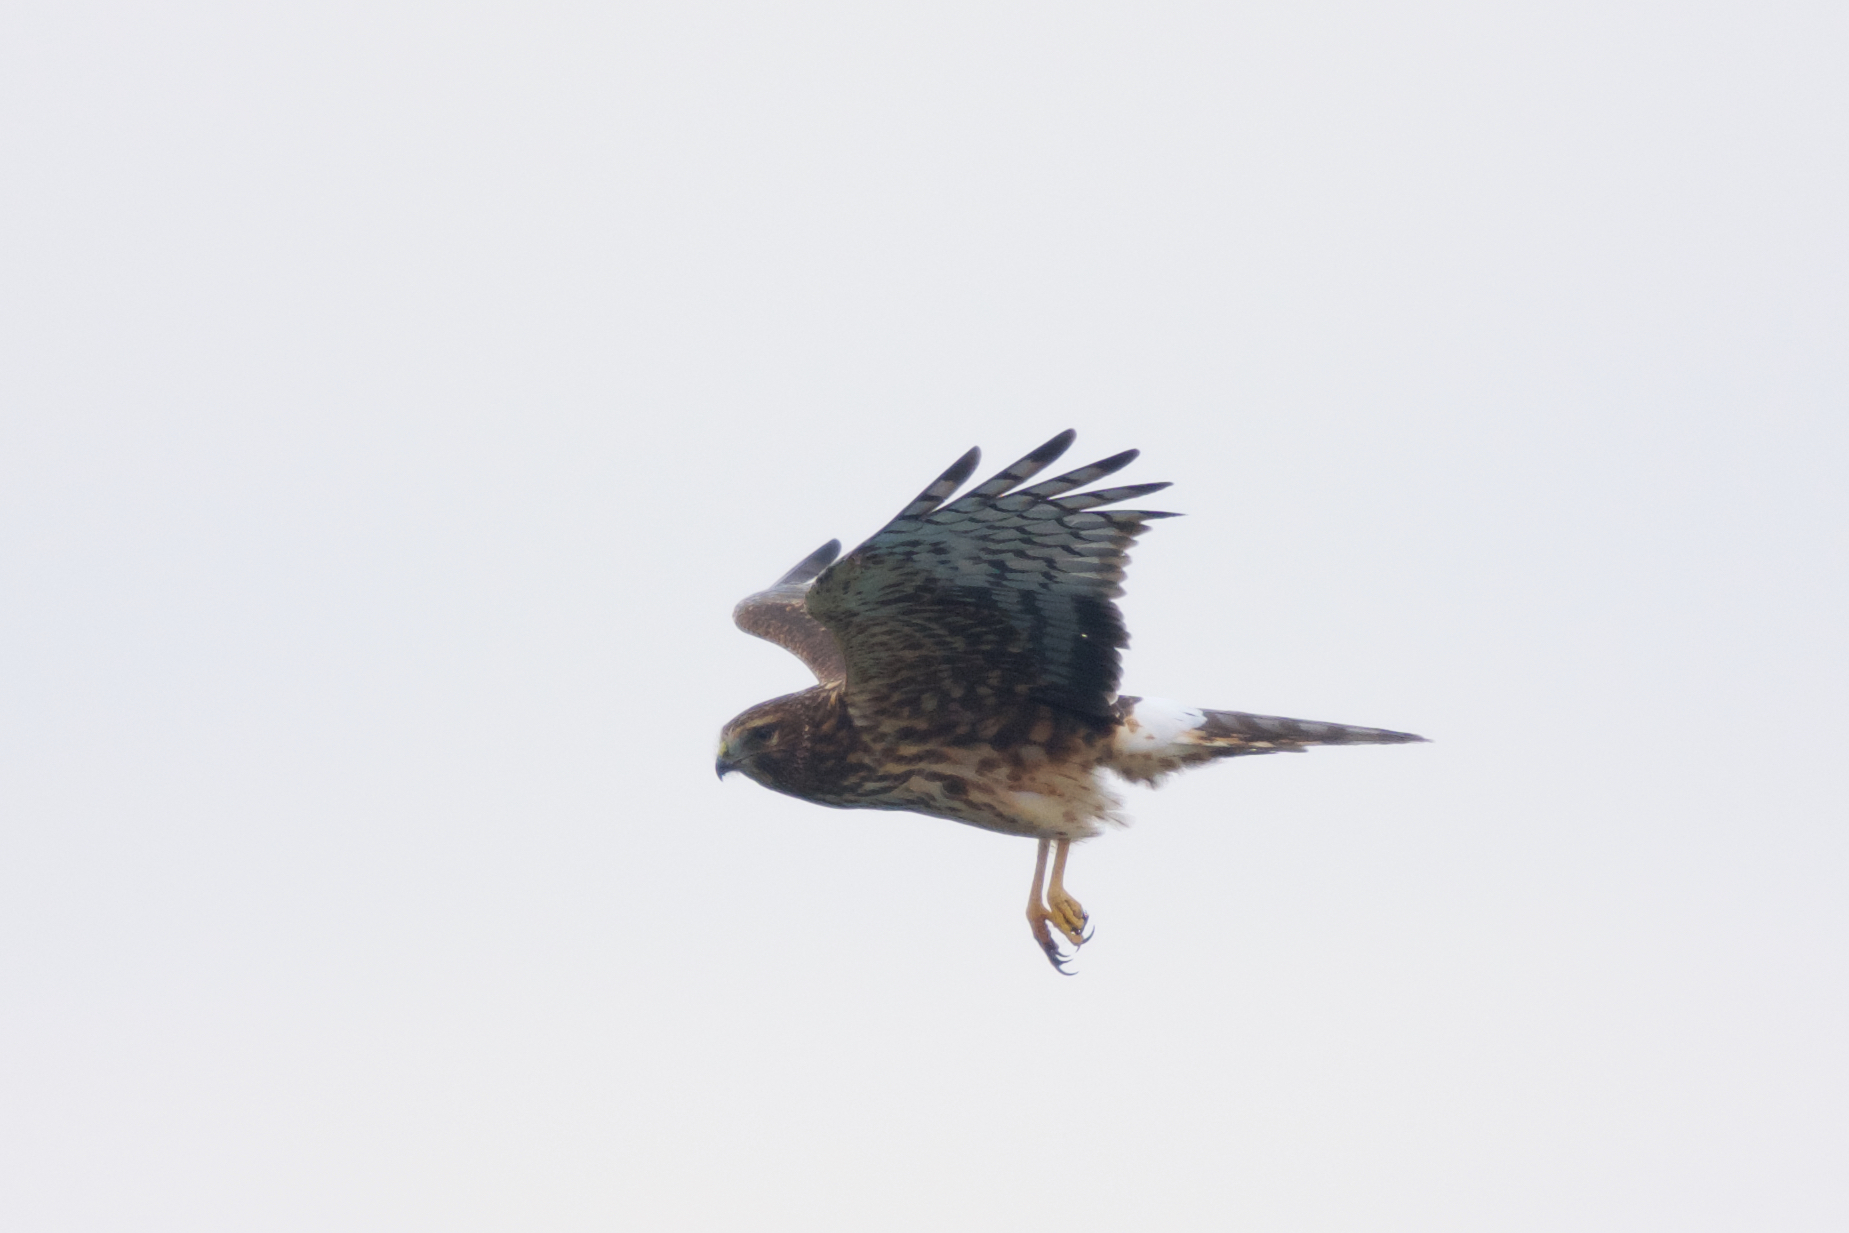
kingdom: Animalia
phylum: Chordata
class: Aves
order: Accipitriformes
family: Accipitridae
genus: Circus
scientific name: Circus cyaneus
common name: Hen harrier
